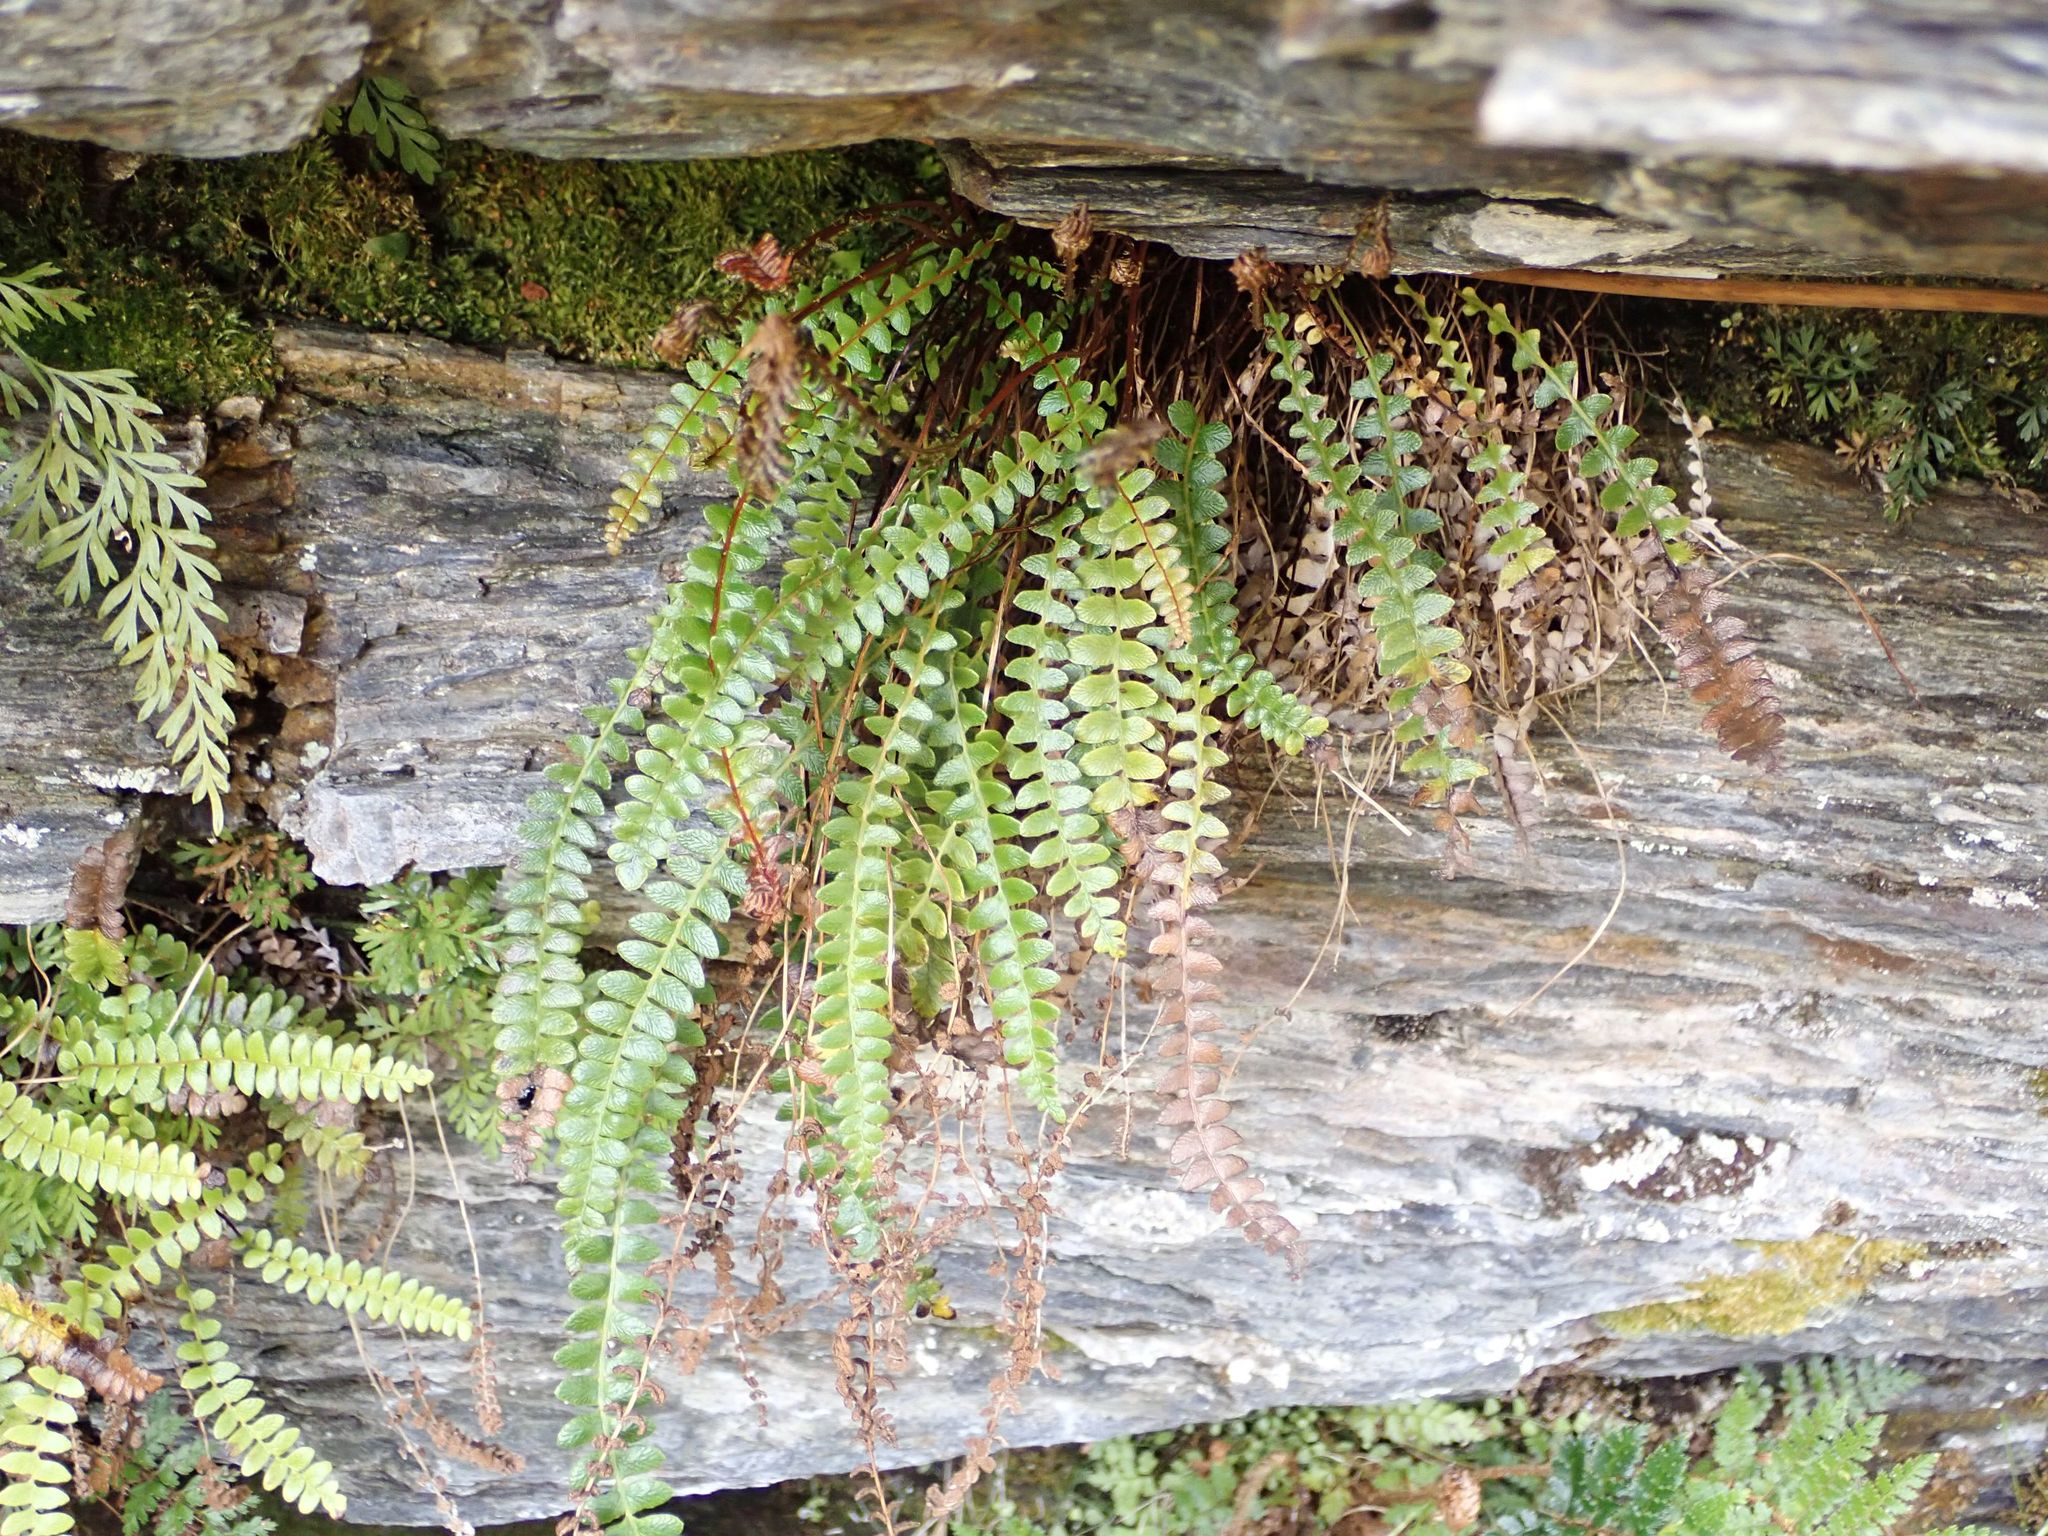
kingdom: Plantae
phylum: Tracheophyta
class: Polypodiopsida
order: Polypodiales
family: Blechnaceae
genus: Austroblechnum
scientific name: Austroblechnum penna-marina
